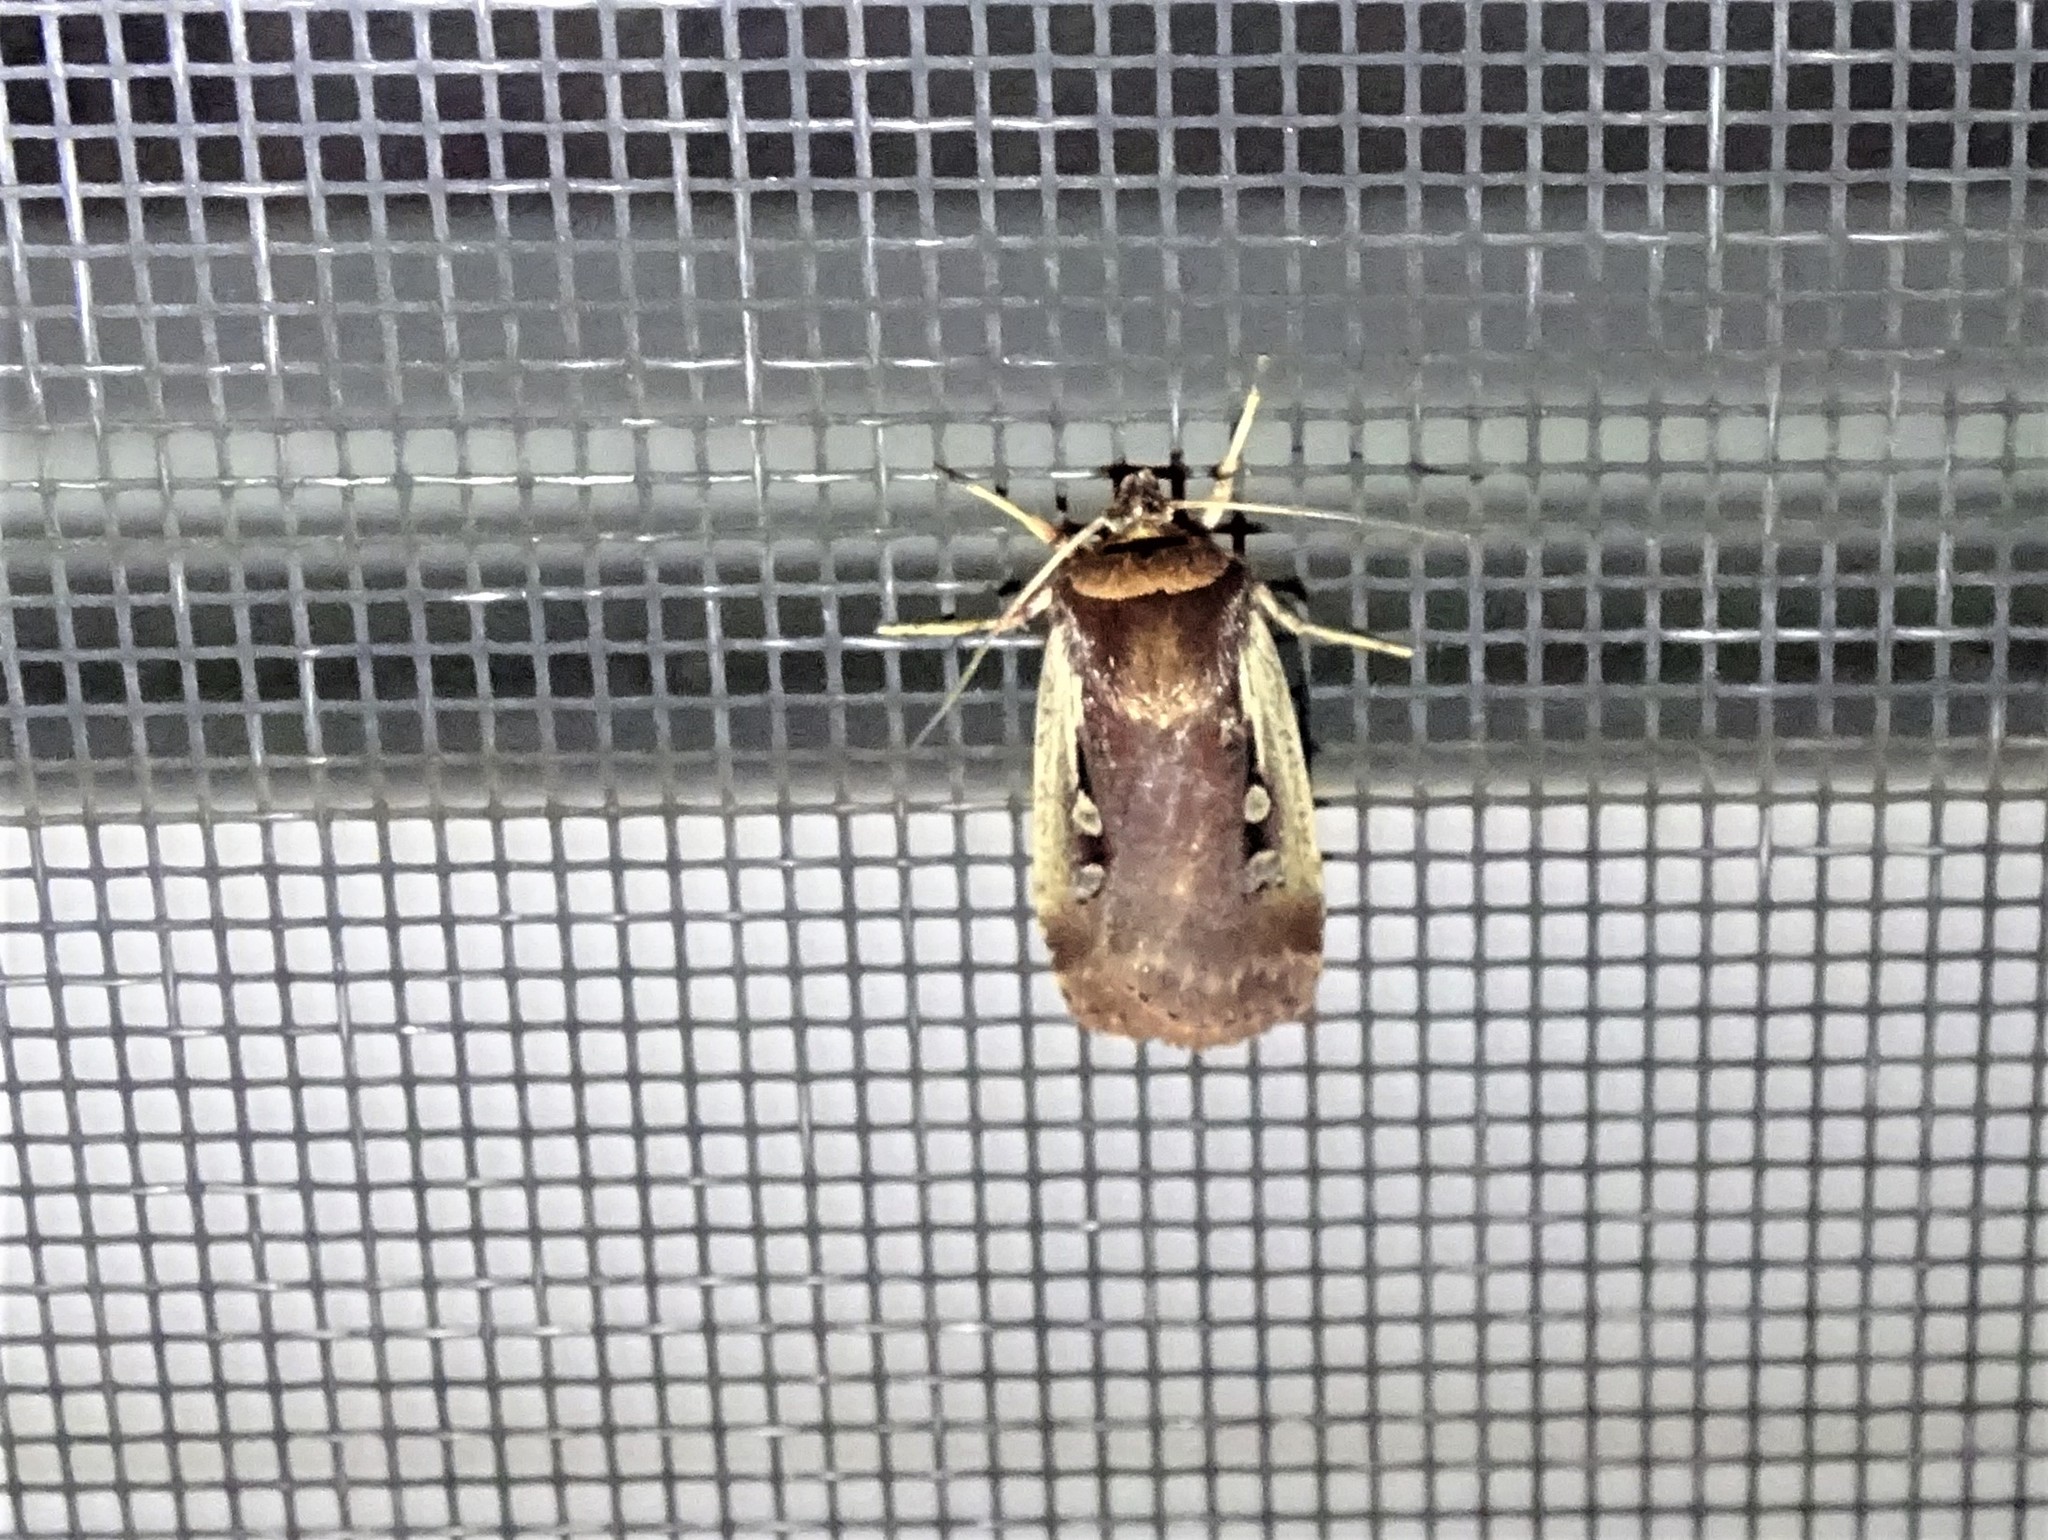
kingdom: Animalia
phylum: Arthropoda
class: Insecta
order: Lepidoptera
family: Noctuidae
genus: Ochropleura
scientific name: Ochropleura implecta
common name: Flame-shouldered dart
